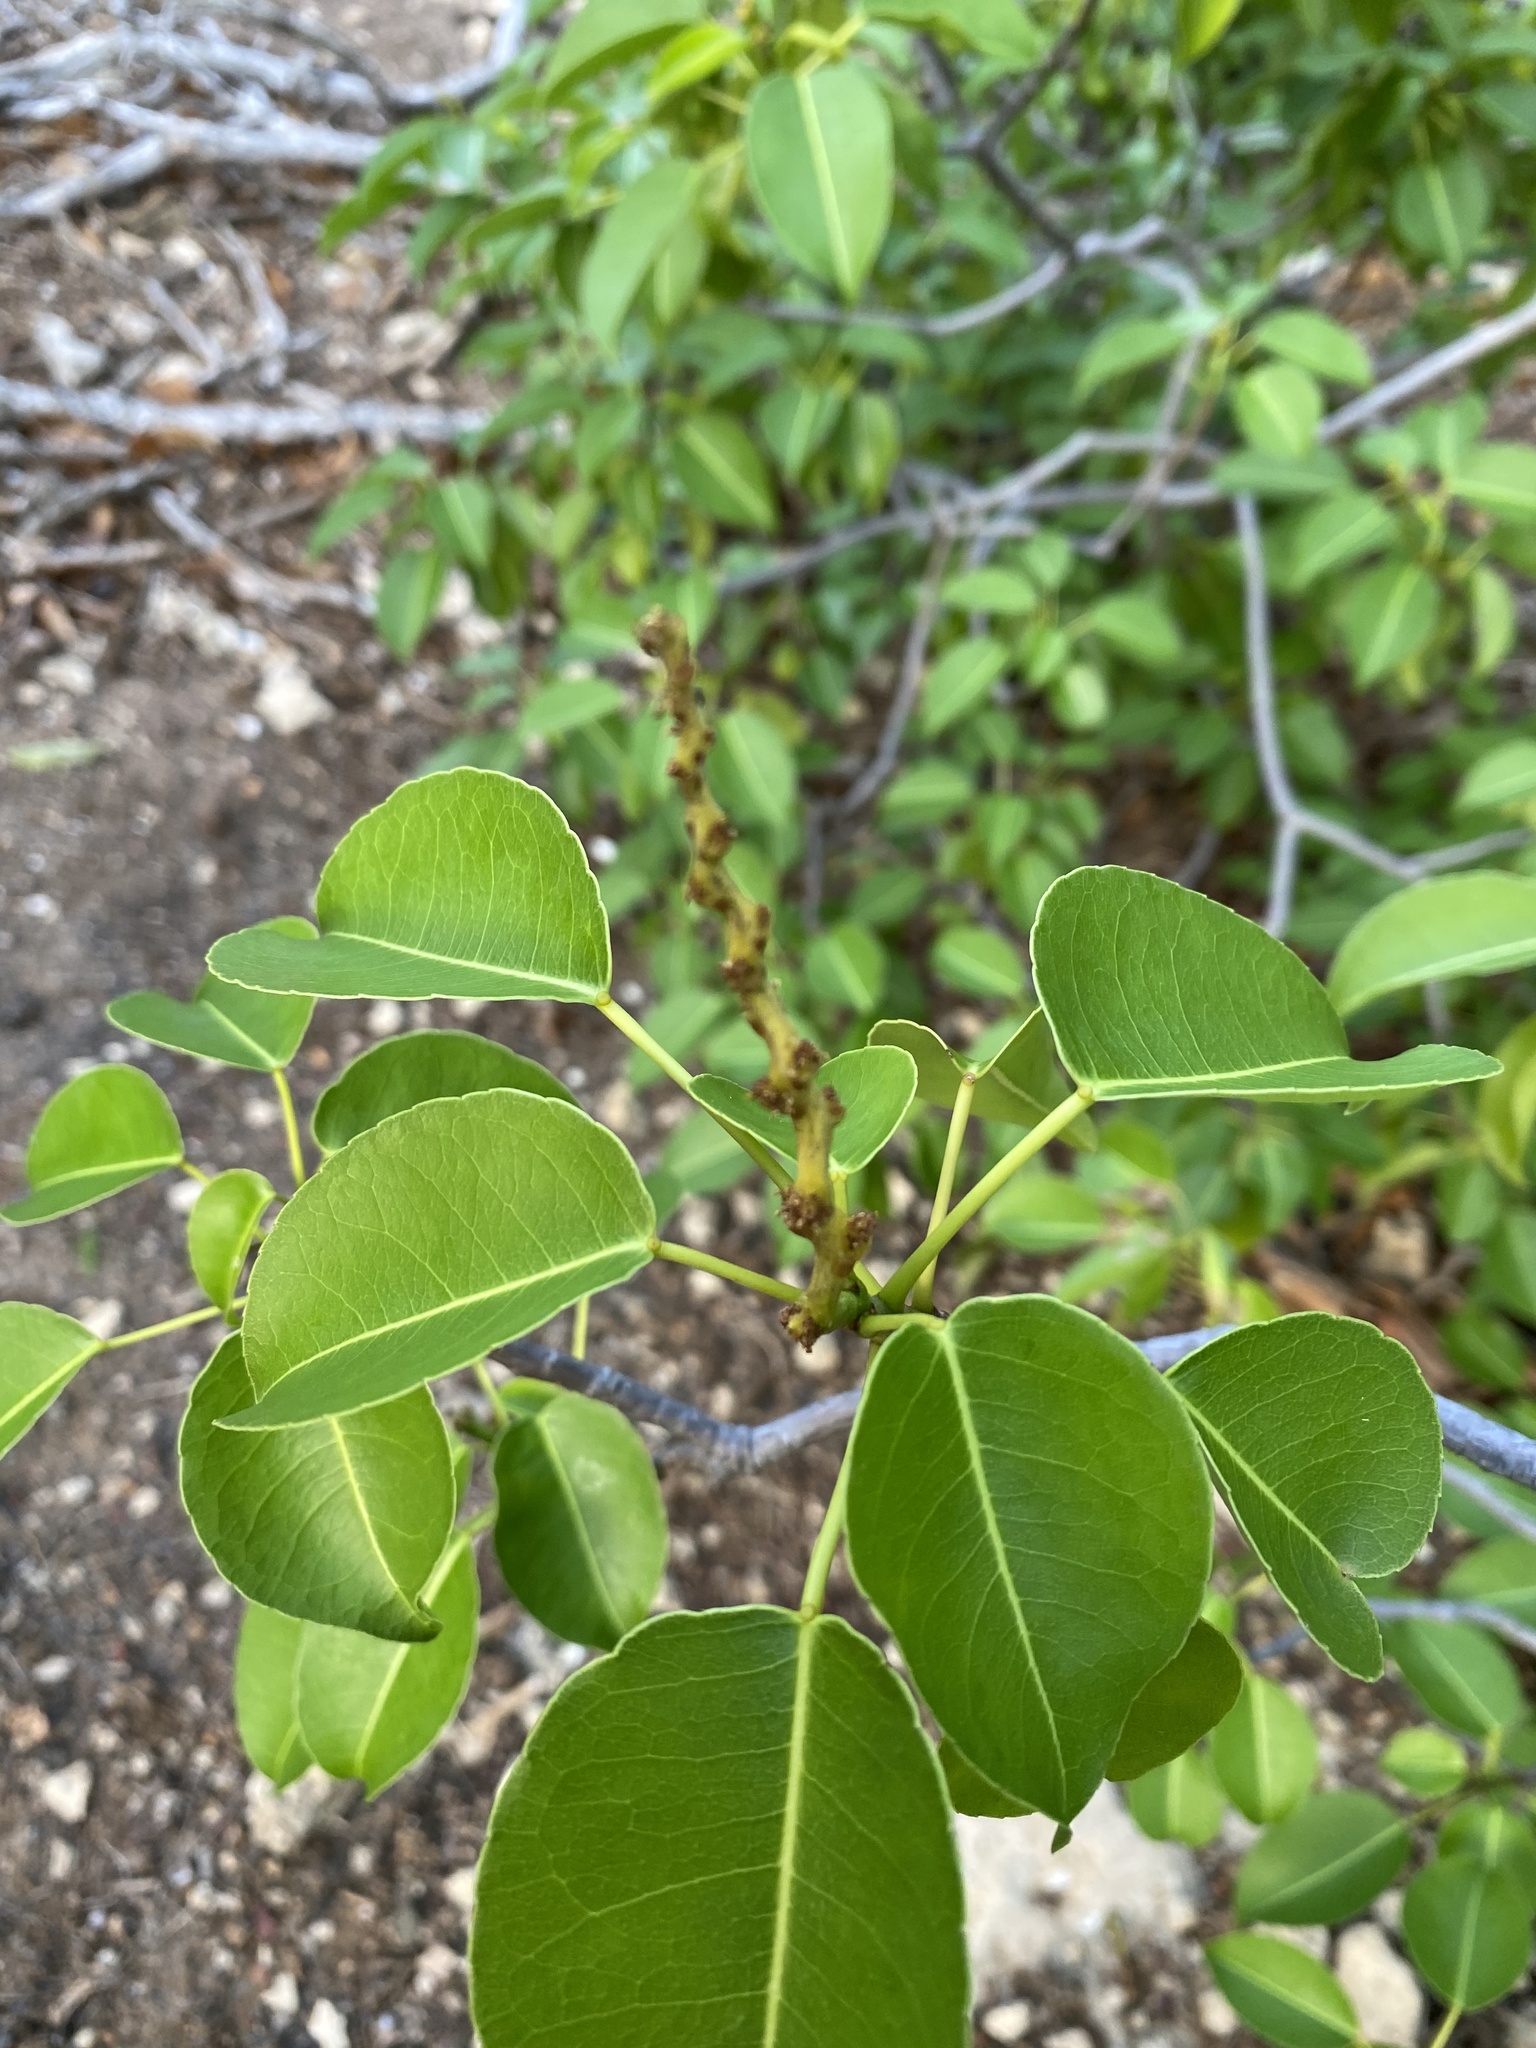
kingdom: Plantae
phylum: Tracheophyta
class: Magnoliopsida
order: Malpighiales
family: Euphorbiaceae
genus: Hippomane
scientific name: Hippomane mancinella
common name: Manchineel
